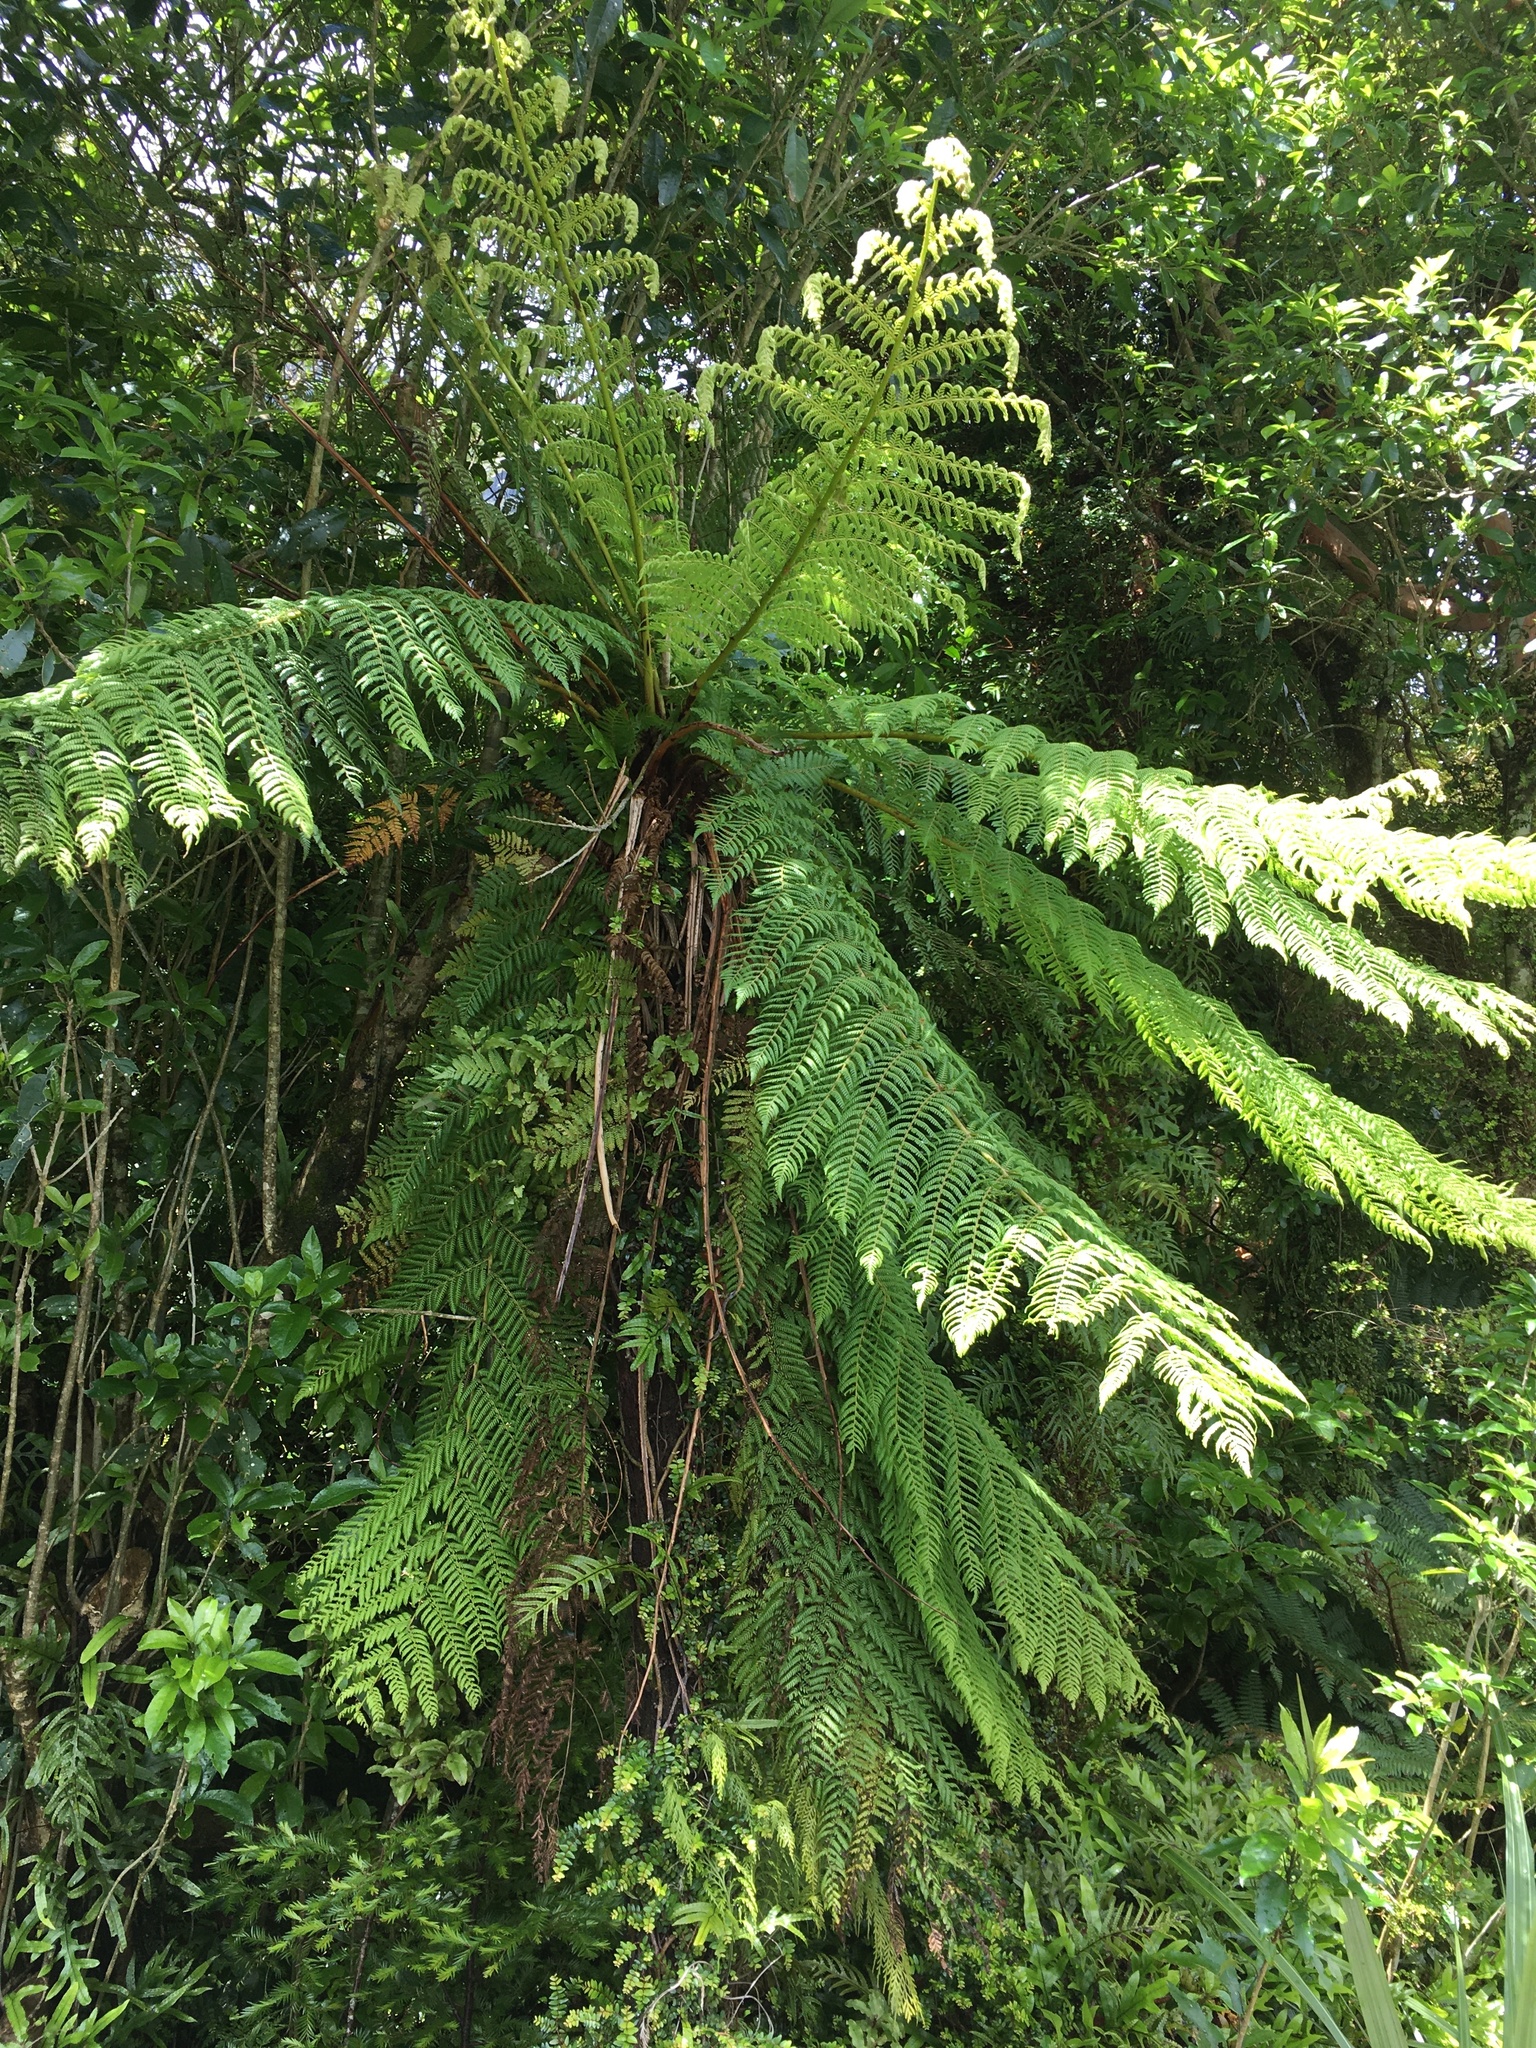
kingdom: Plantae
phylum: Tracheophyta
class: Polypodiopsida
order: Cyatheales
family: Cyatheaceae
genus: Alsophila
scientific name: Alsophila smithii
